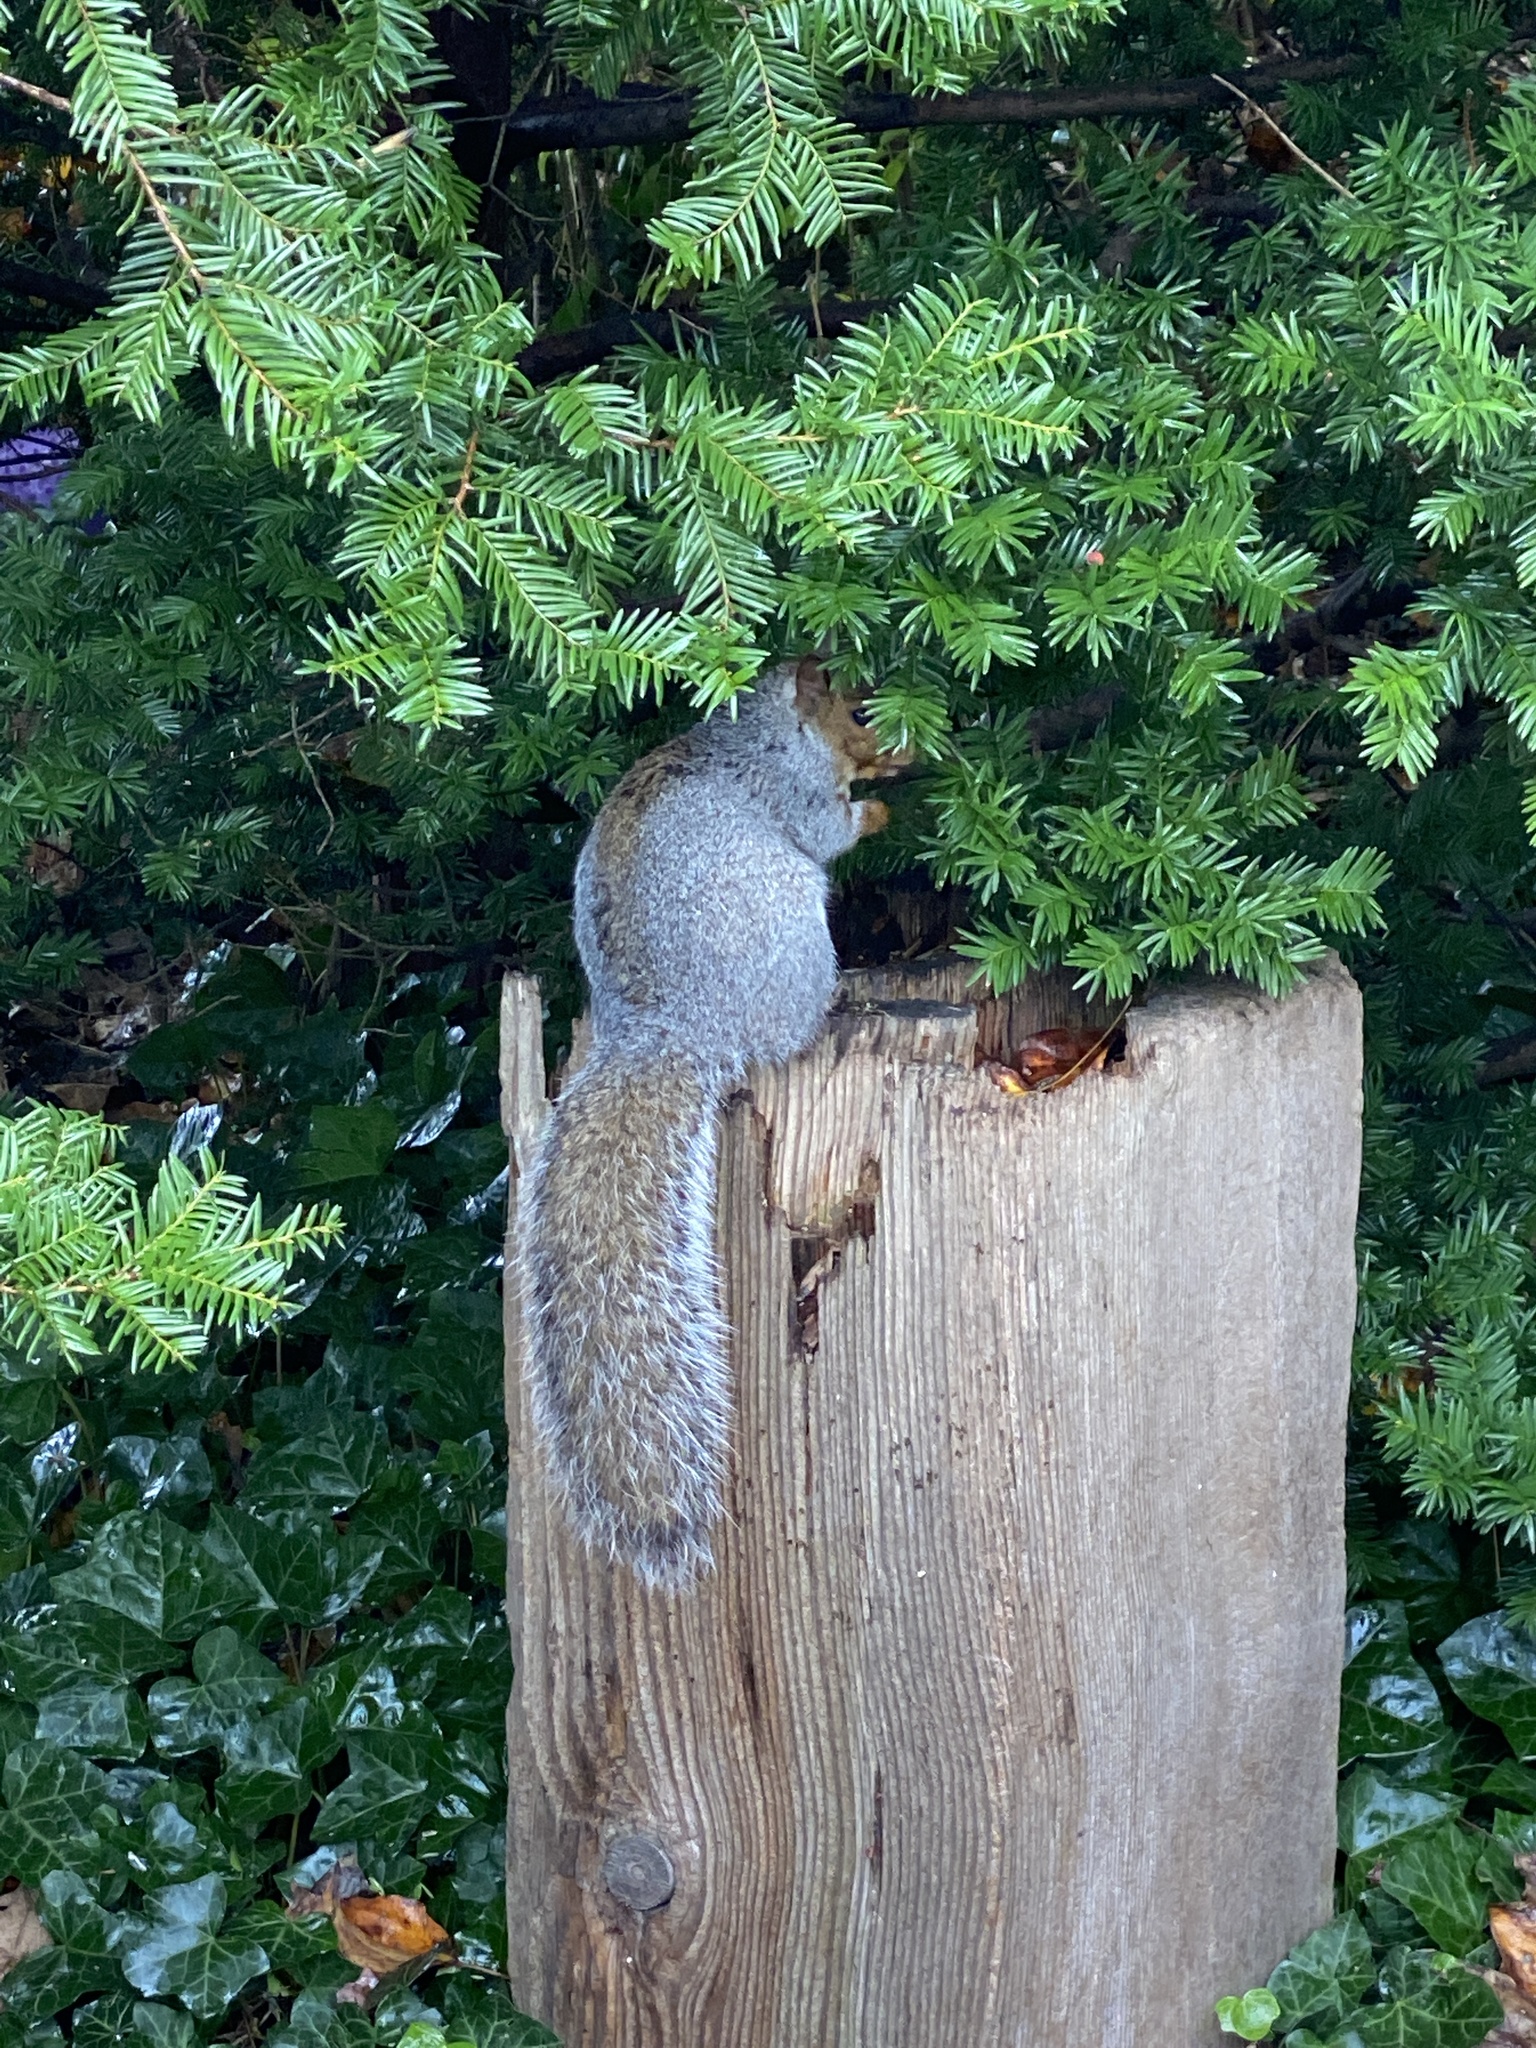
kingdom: Animalia
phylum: Chordata
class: Mammalia
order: Rodentia
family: Sciuridae
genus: Sciurus
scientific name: Sciurus carolinensis
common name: Eastern gray squirrel
